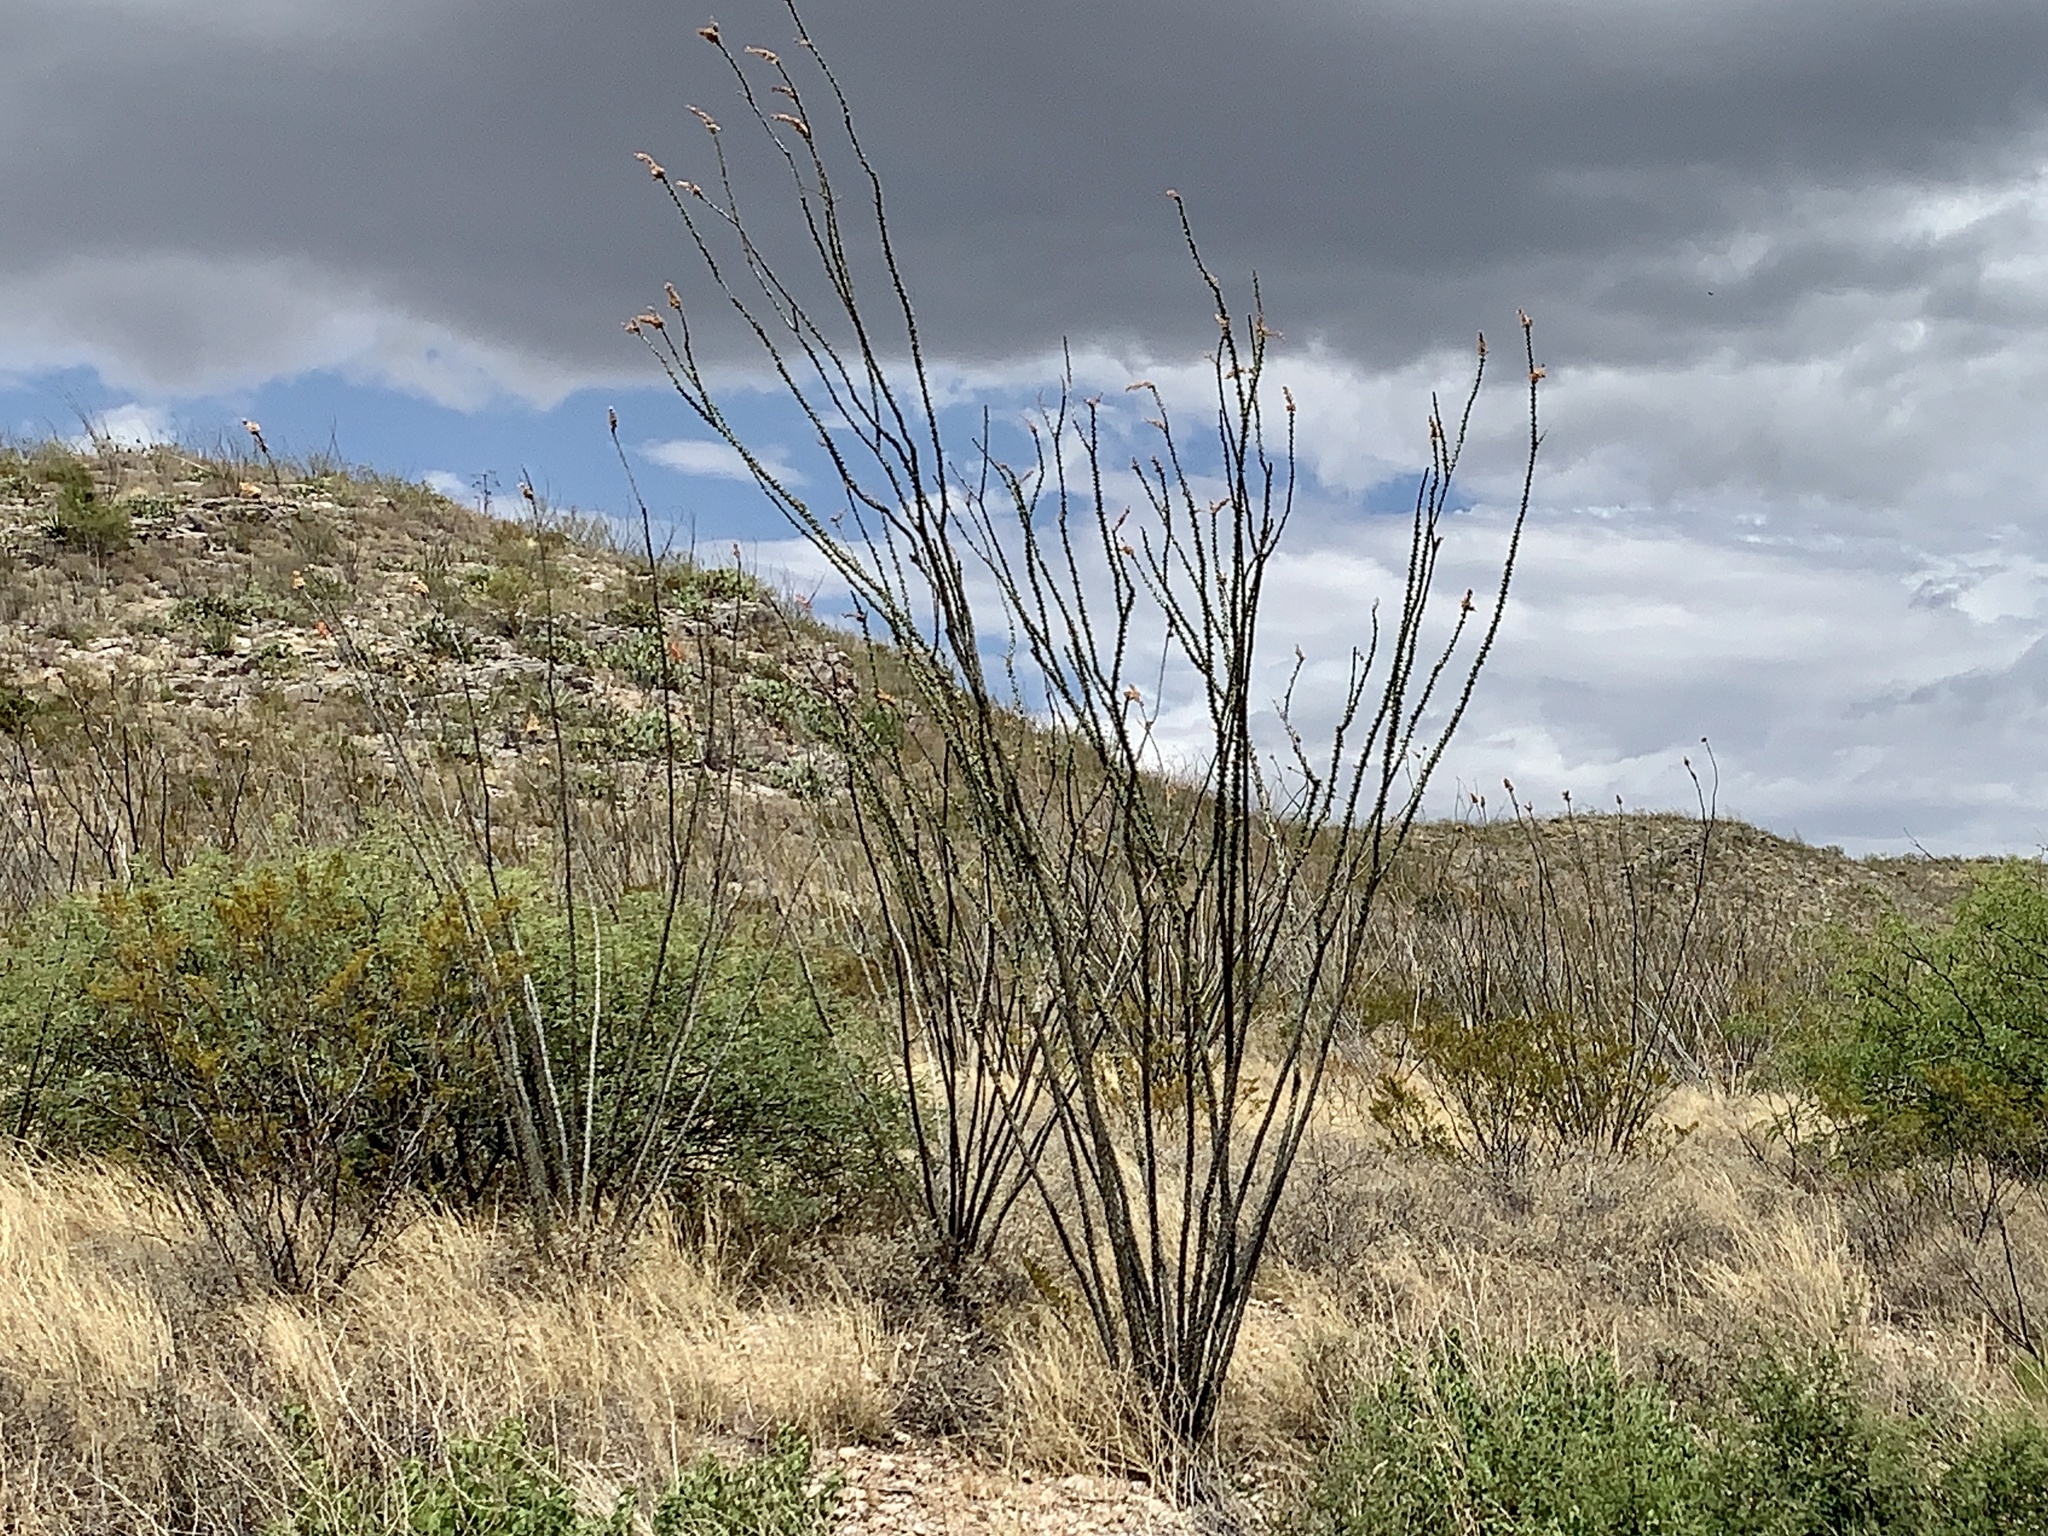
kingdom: Plantae
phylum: Tracheophyta
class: Magnoliopsida
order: Ericales
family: Fouquieriaceae
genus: Fouquieria
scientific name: Fouquieria splendens
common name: Vine-cactus
